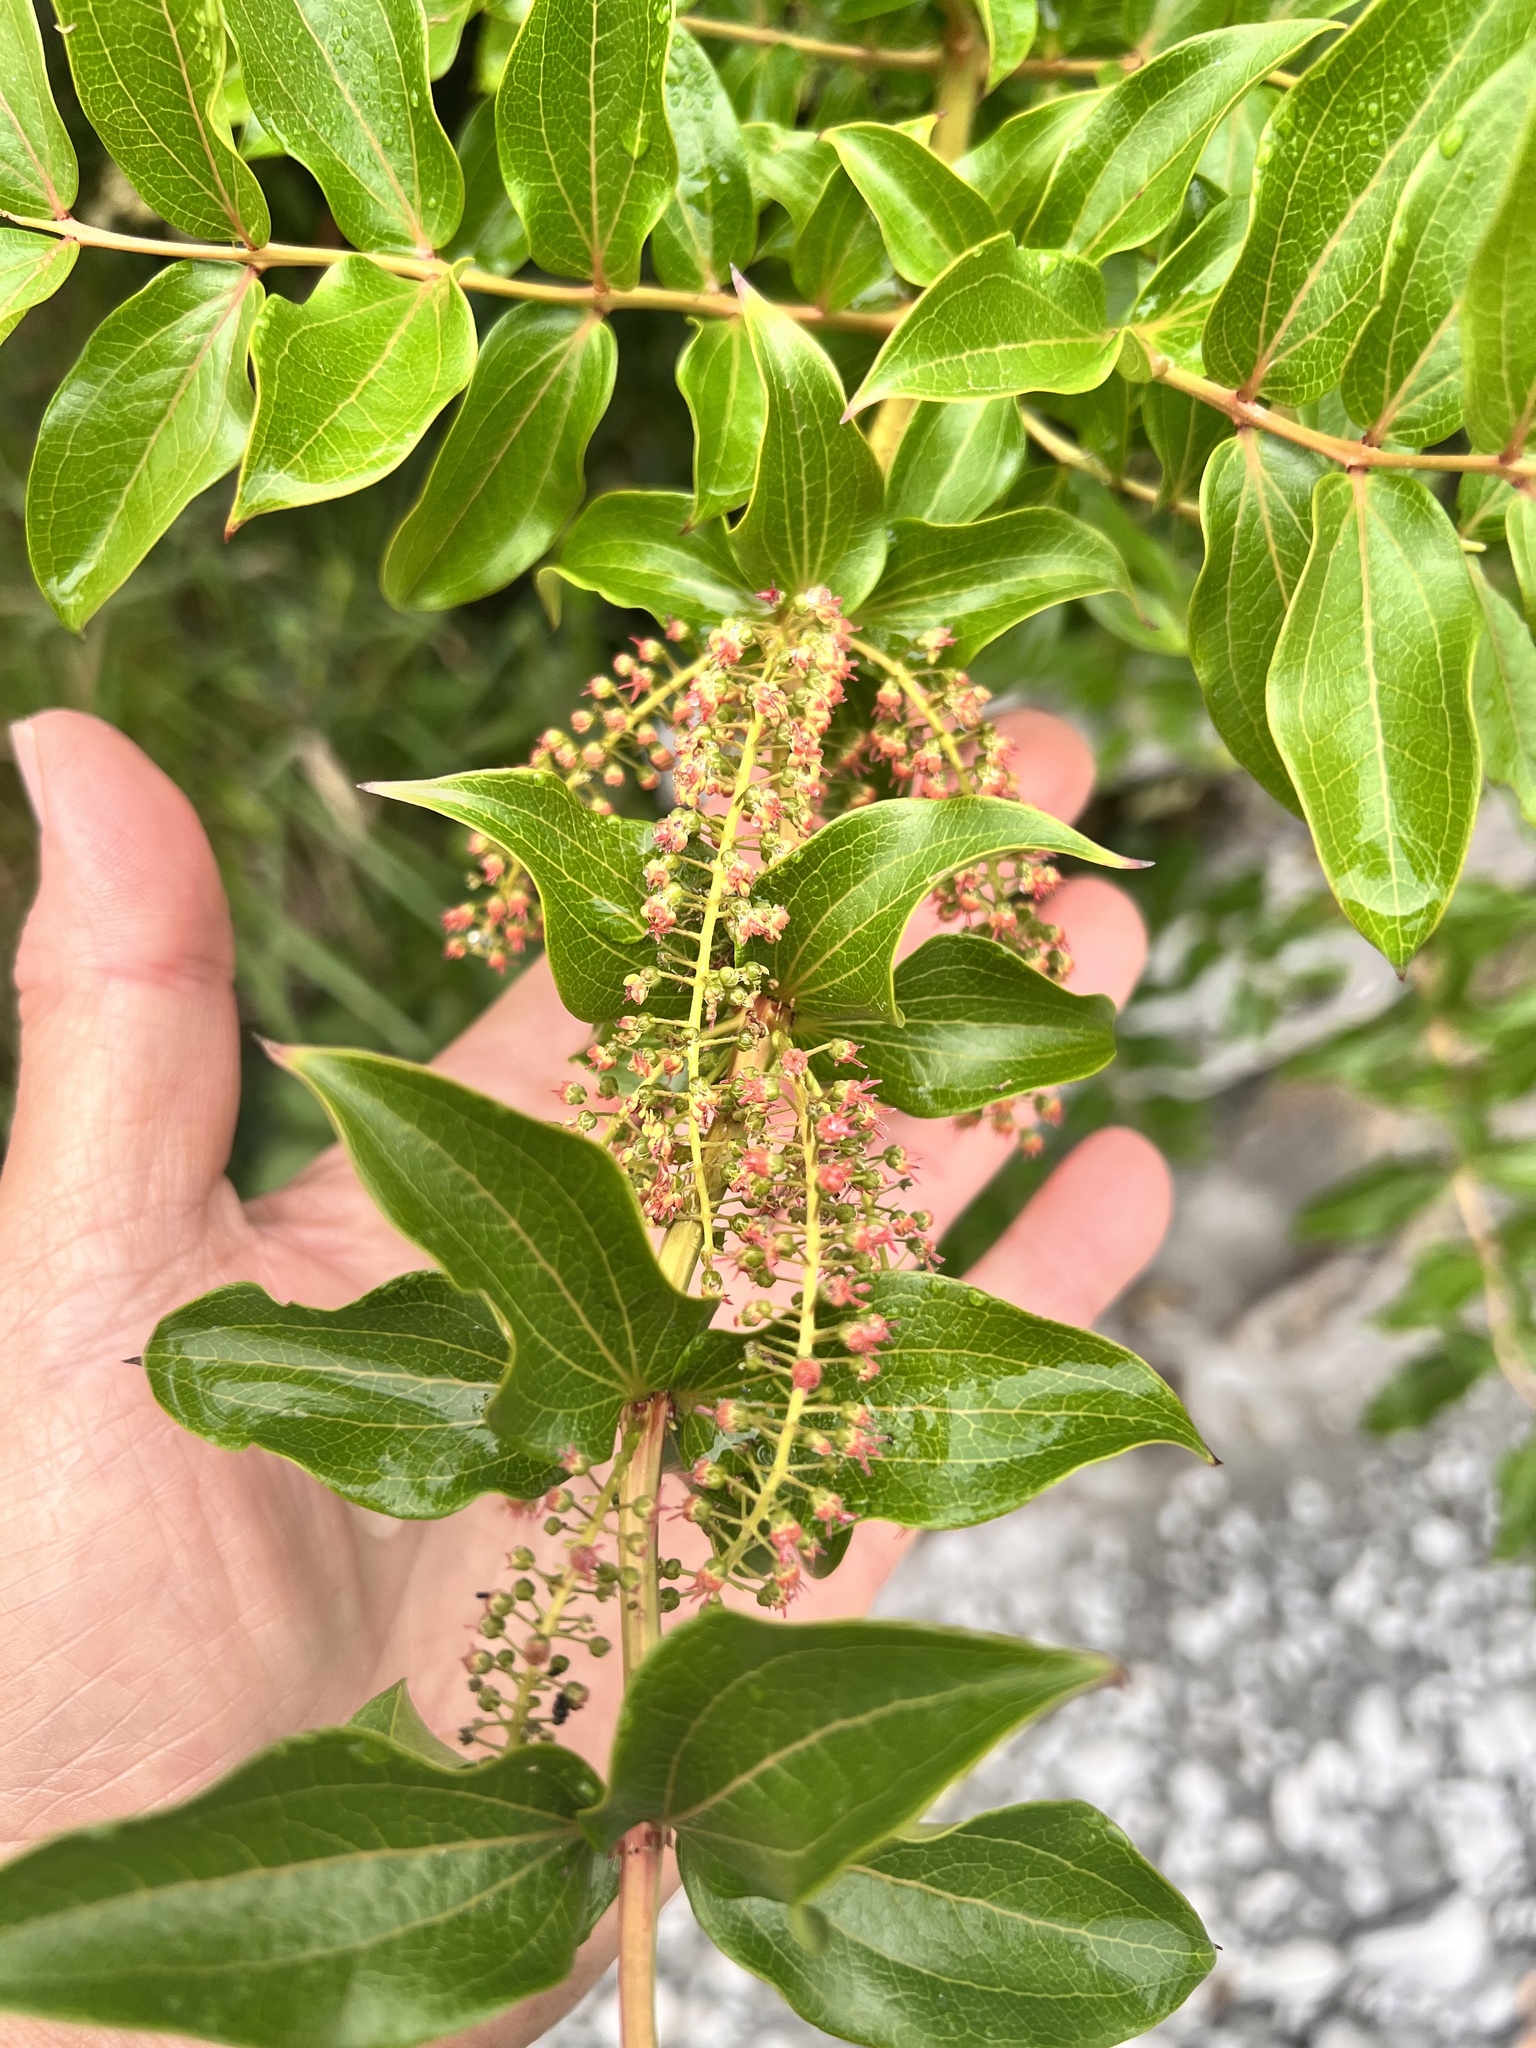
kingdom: Plantae
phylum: Tracheophyta
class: Magnoliopsida
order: Cucurbitales
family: Coriariaceae
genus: Coriaria
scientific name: Coriaria arborea
